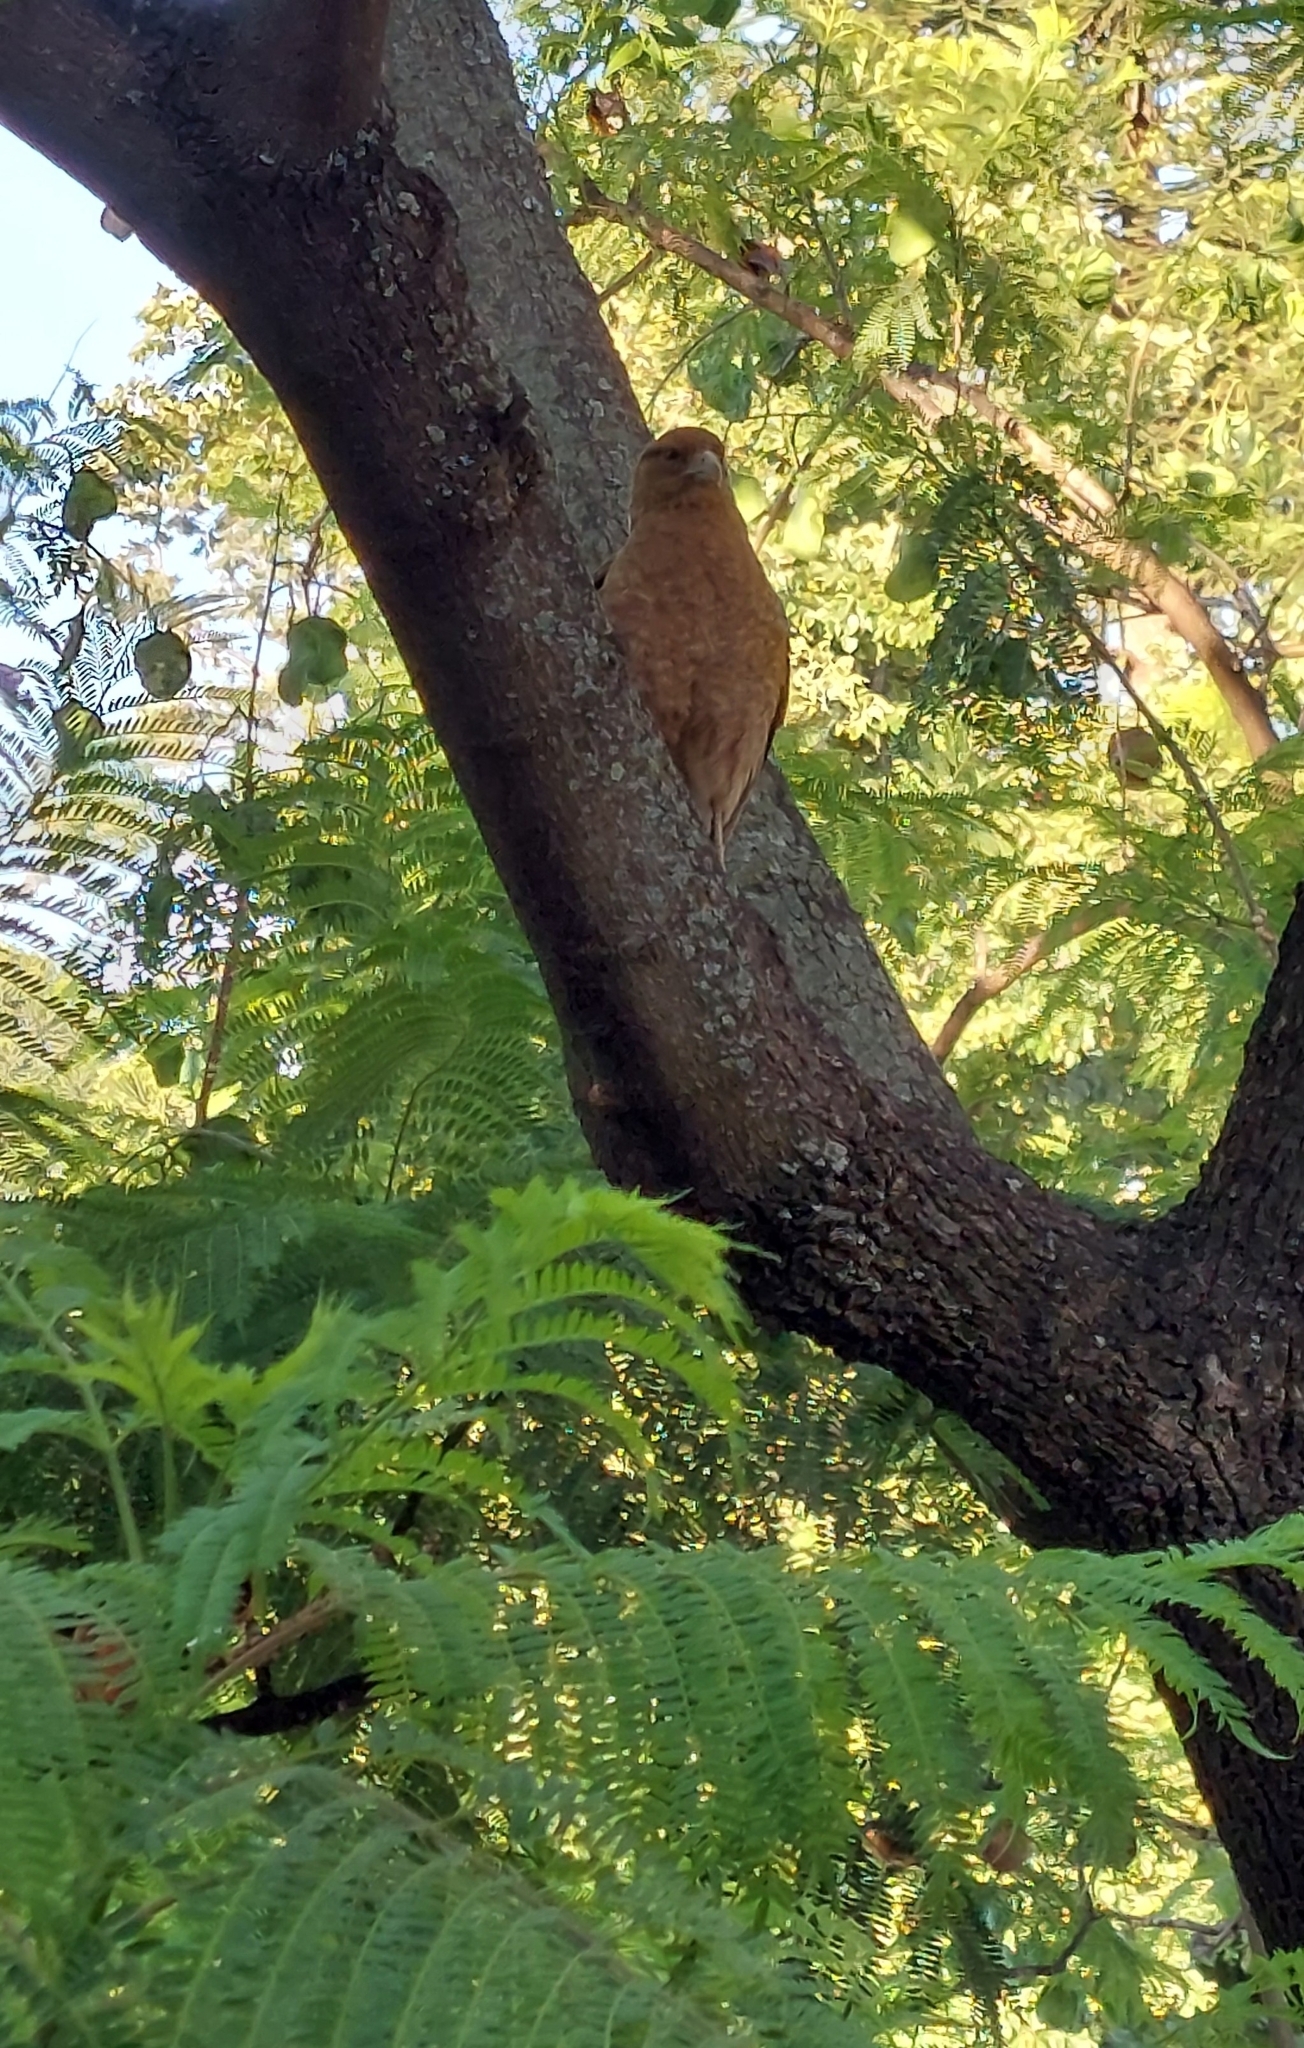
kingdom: Animalia
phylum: Chordata
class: Aves
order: Falconiformes
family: Falconidae
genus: Daptrius
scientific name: Daptrius
